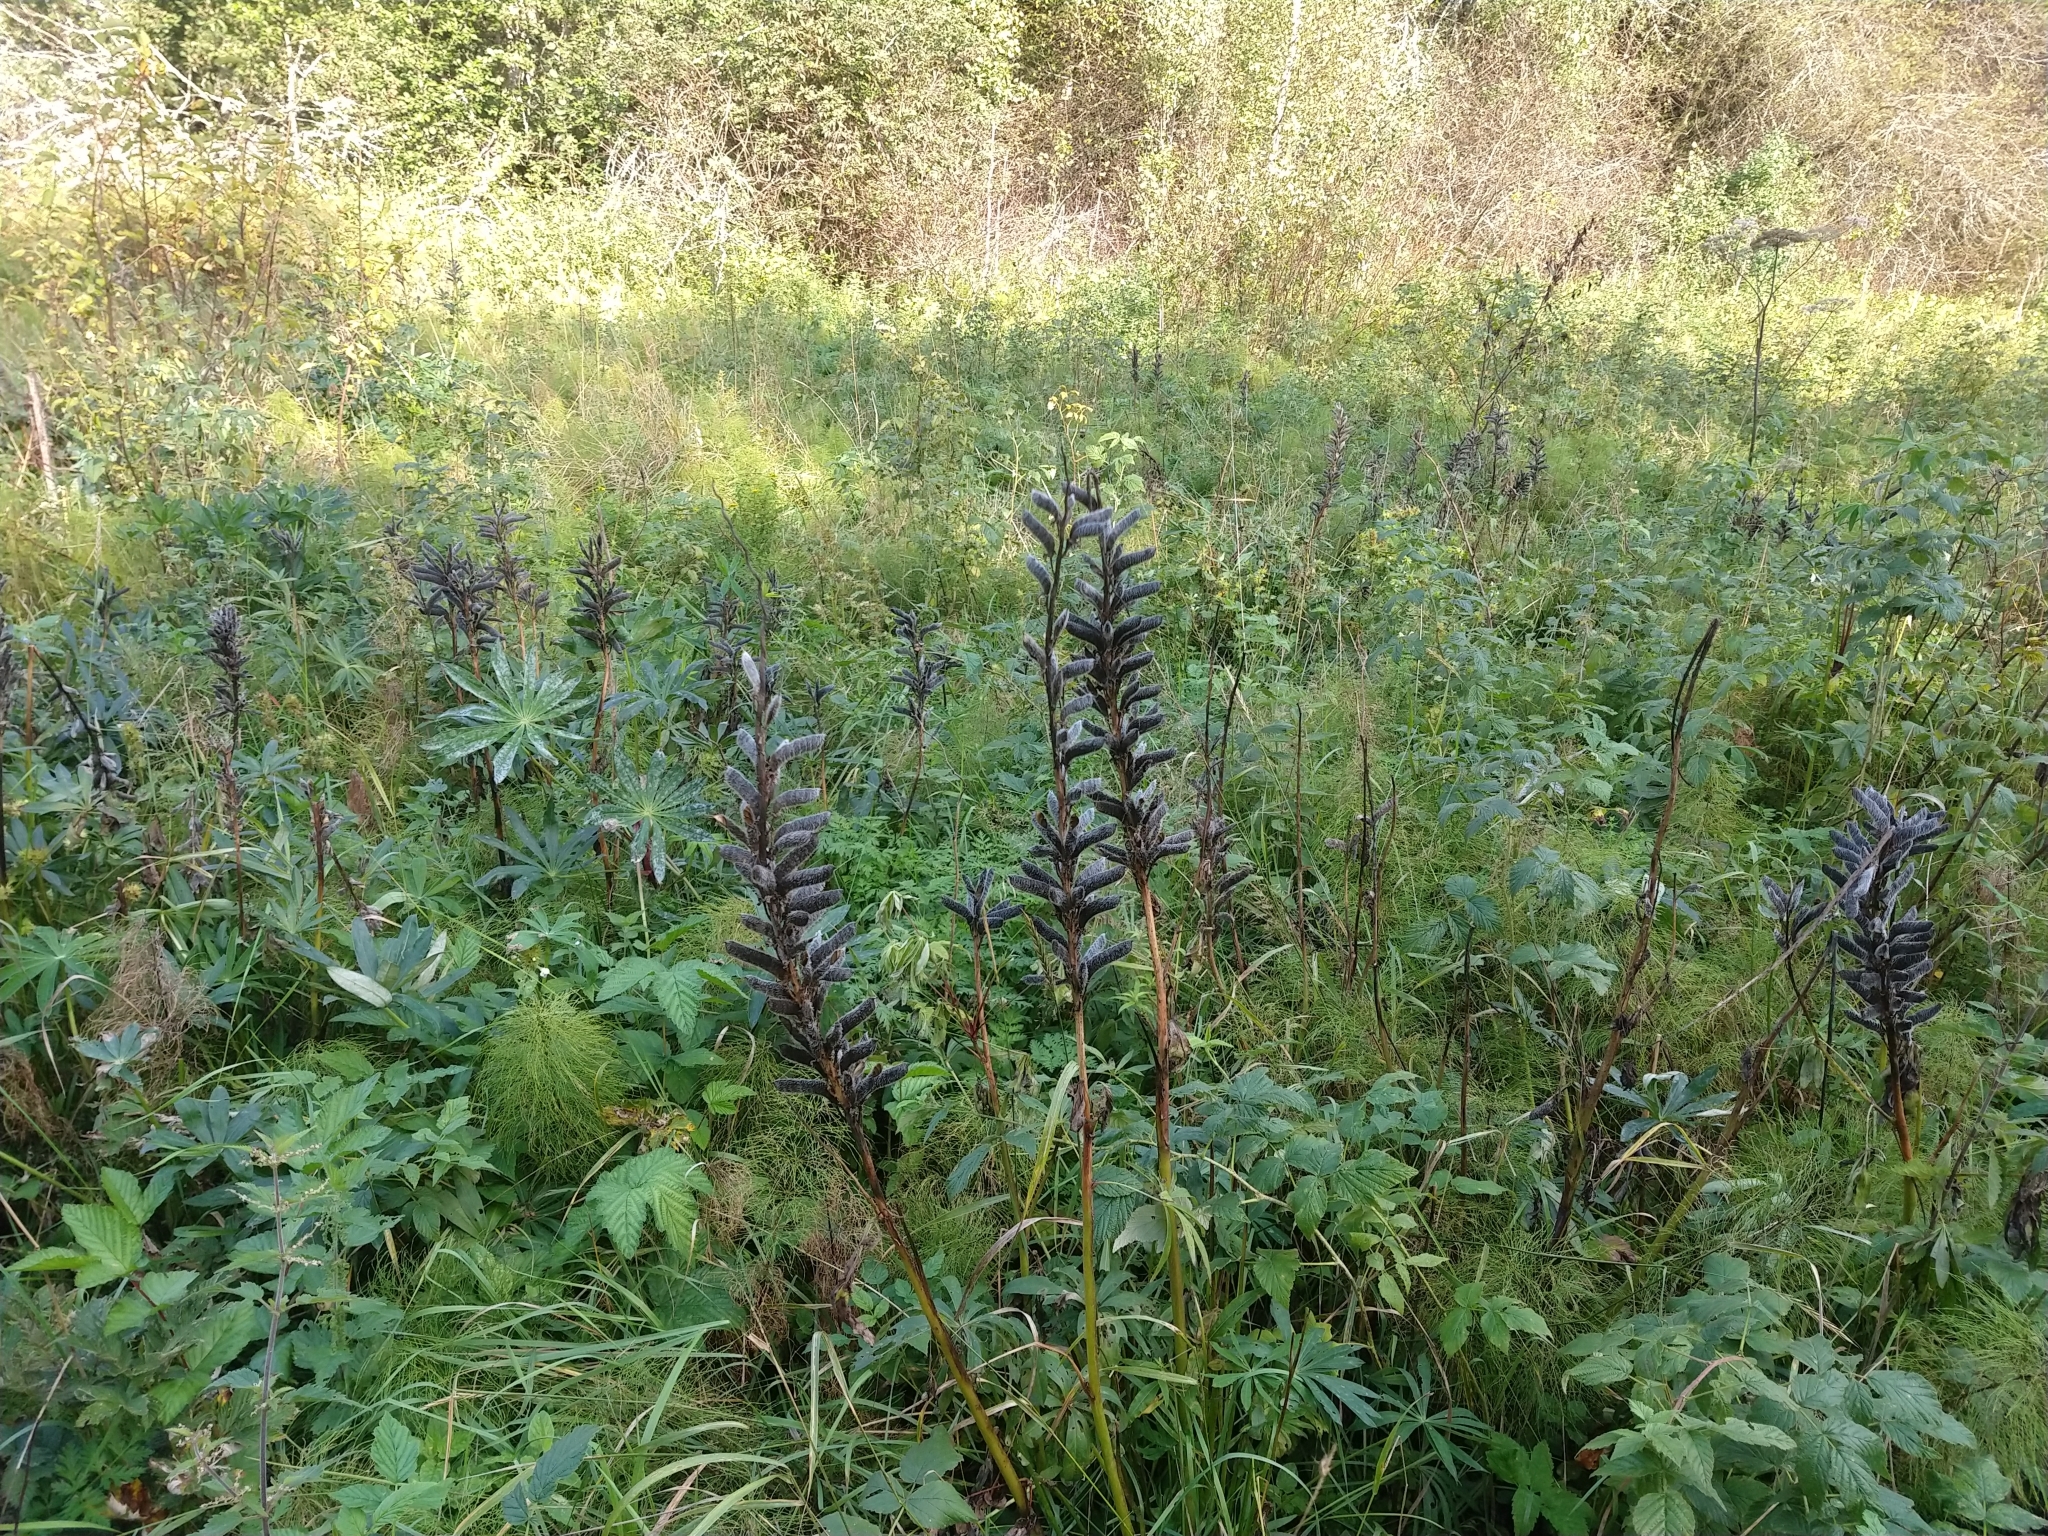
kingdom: Plantae
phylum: Tracheophyta
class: Magnoliopsida
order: Fabales
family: Fabaceae
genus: Lupinus
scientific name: Lupinus polyphyllus
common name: Garden lupin
